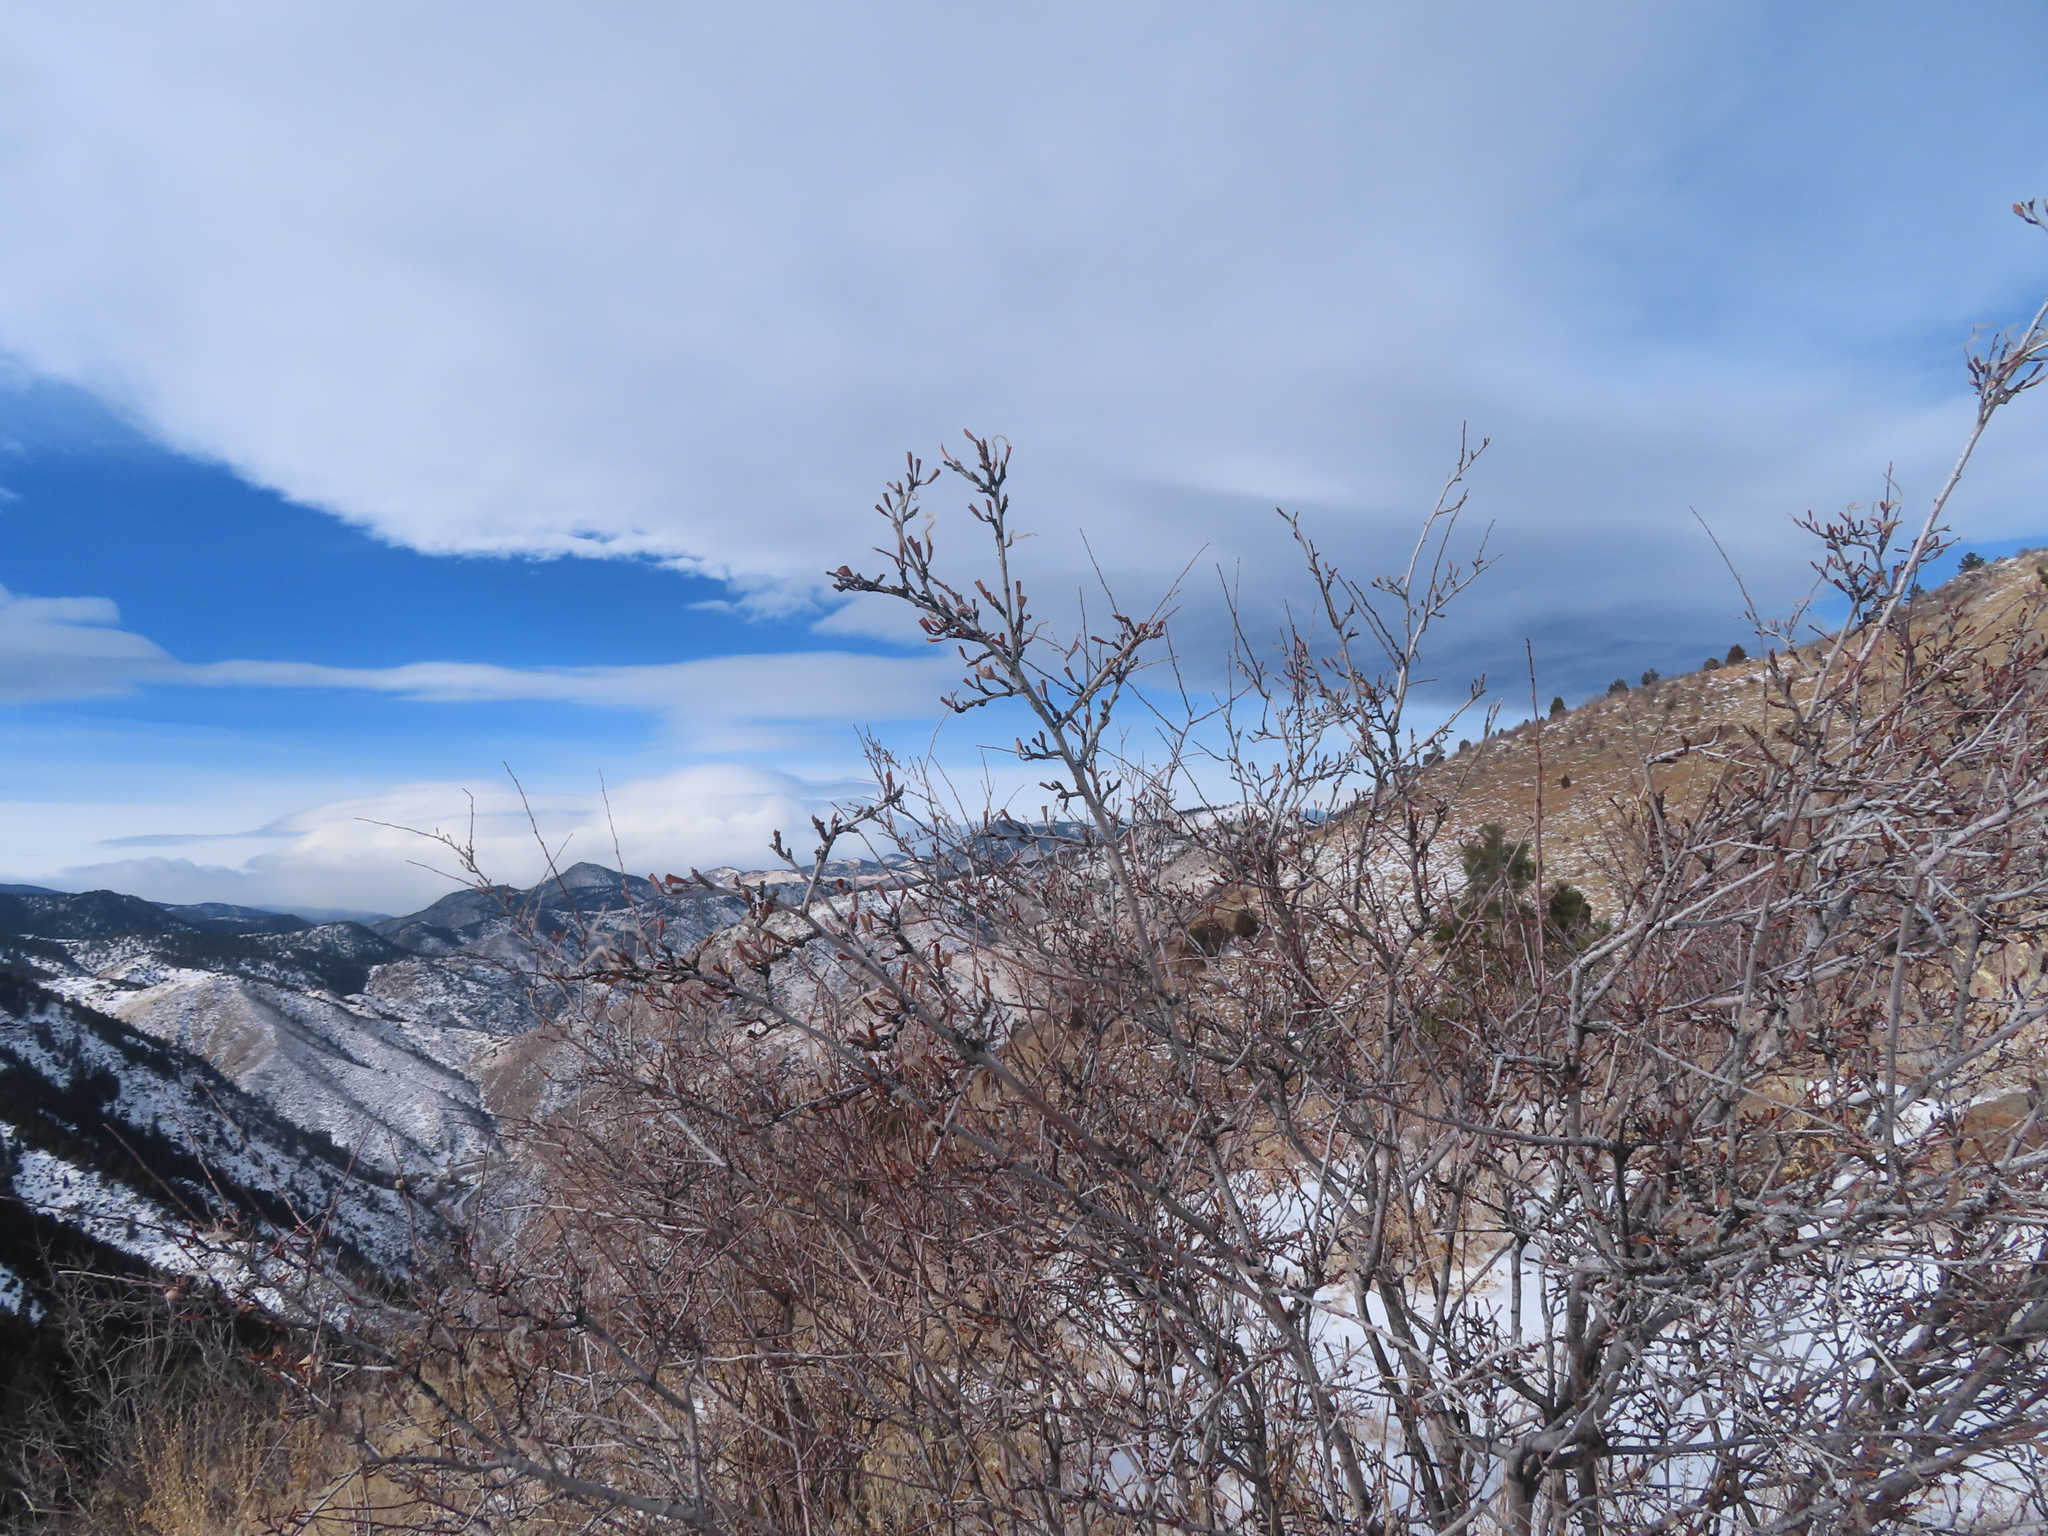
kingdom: Plantae
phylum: Tracheophyta
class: Magnoliopsida
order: Rosales
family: Rosaceae
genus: Cercocarpus
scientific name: Cercocarpus montanus
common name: Alder-leaf cercocarpus
